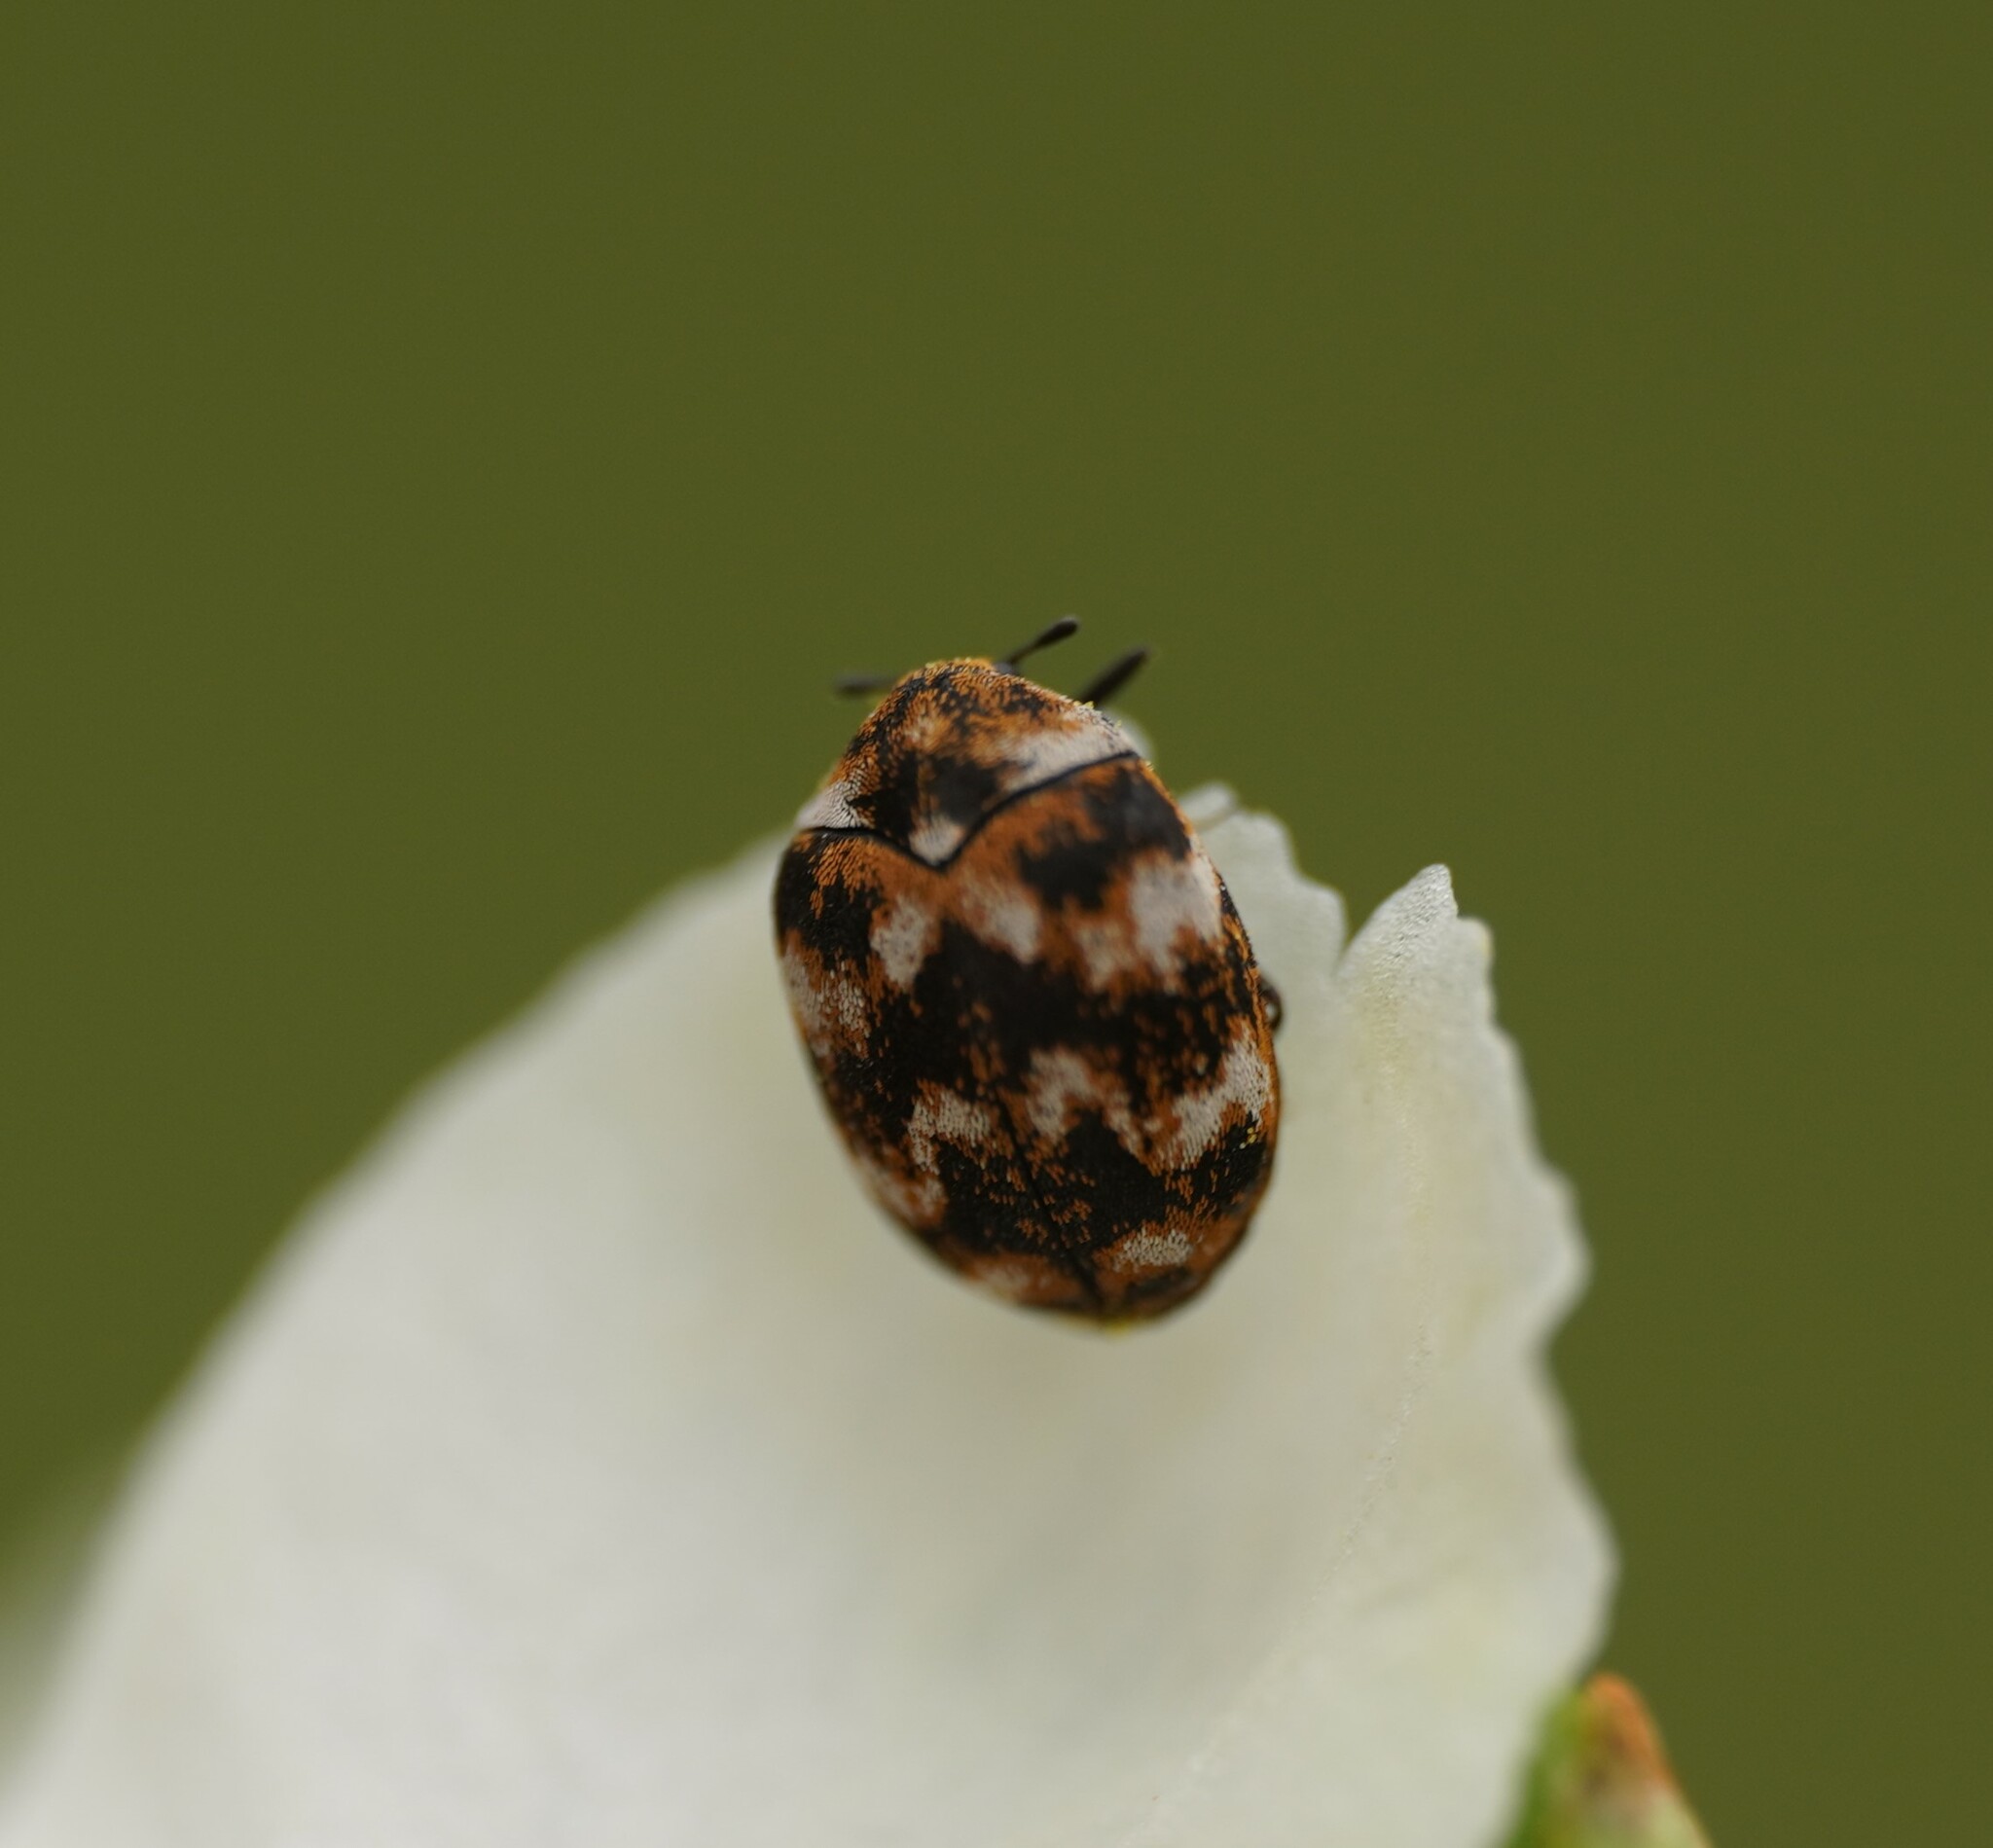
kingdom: Animalia
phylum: Arthropoda
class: Insecta
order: Coleoptera
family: Dermestidae
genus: Anthrenus
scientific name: Anthrenus verbasci
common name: Varied carpet beetle
